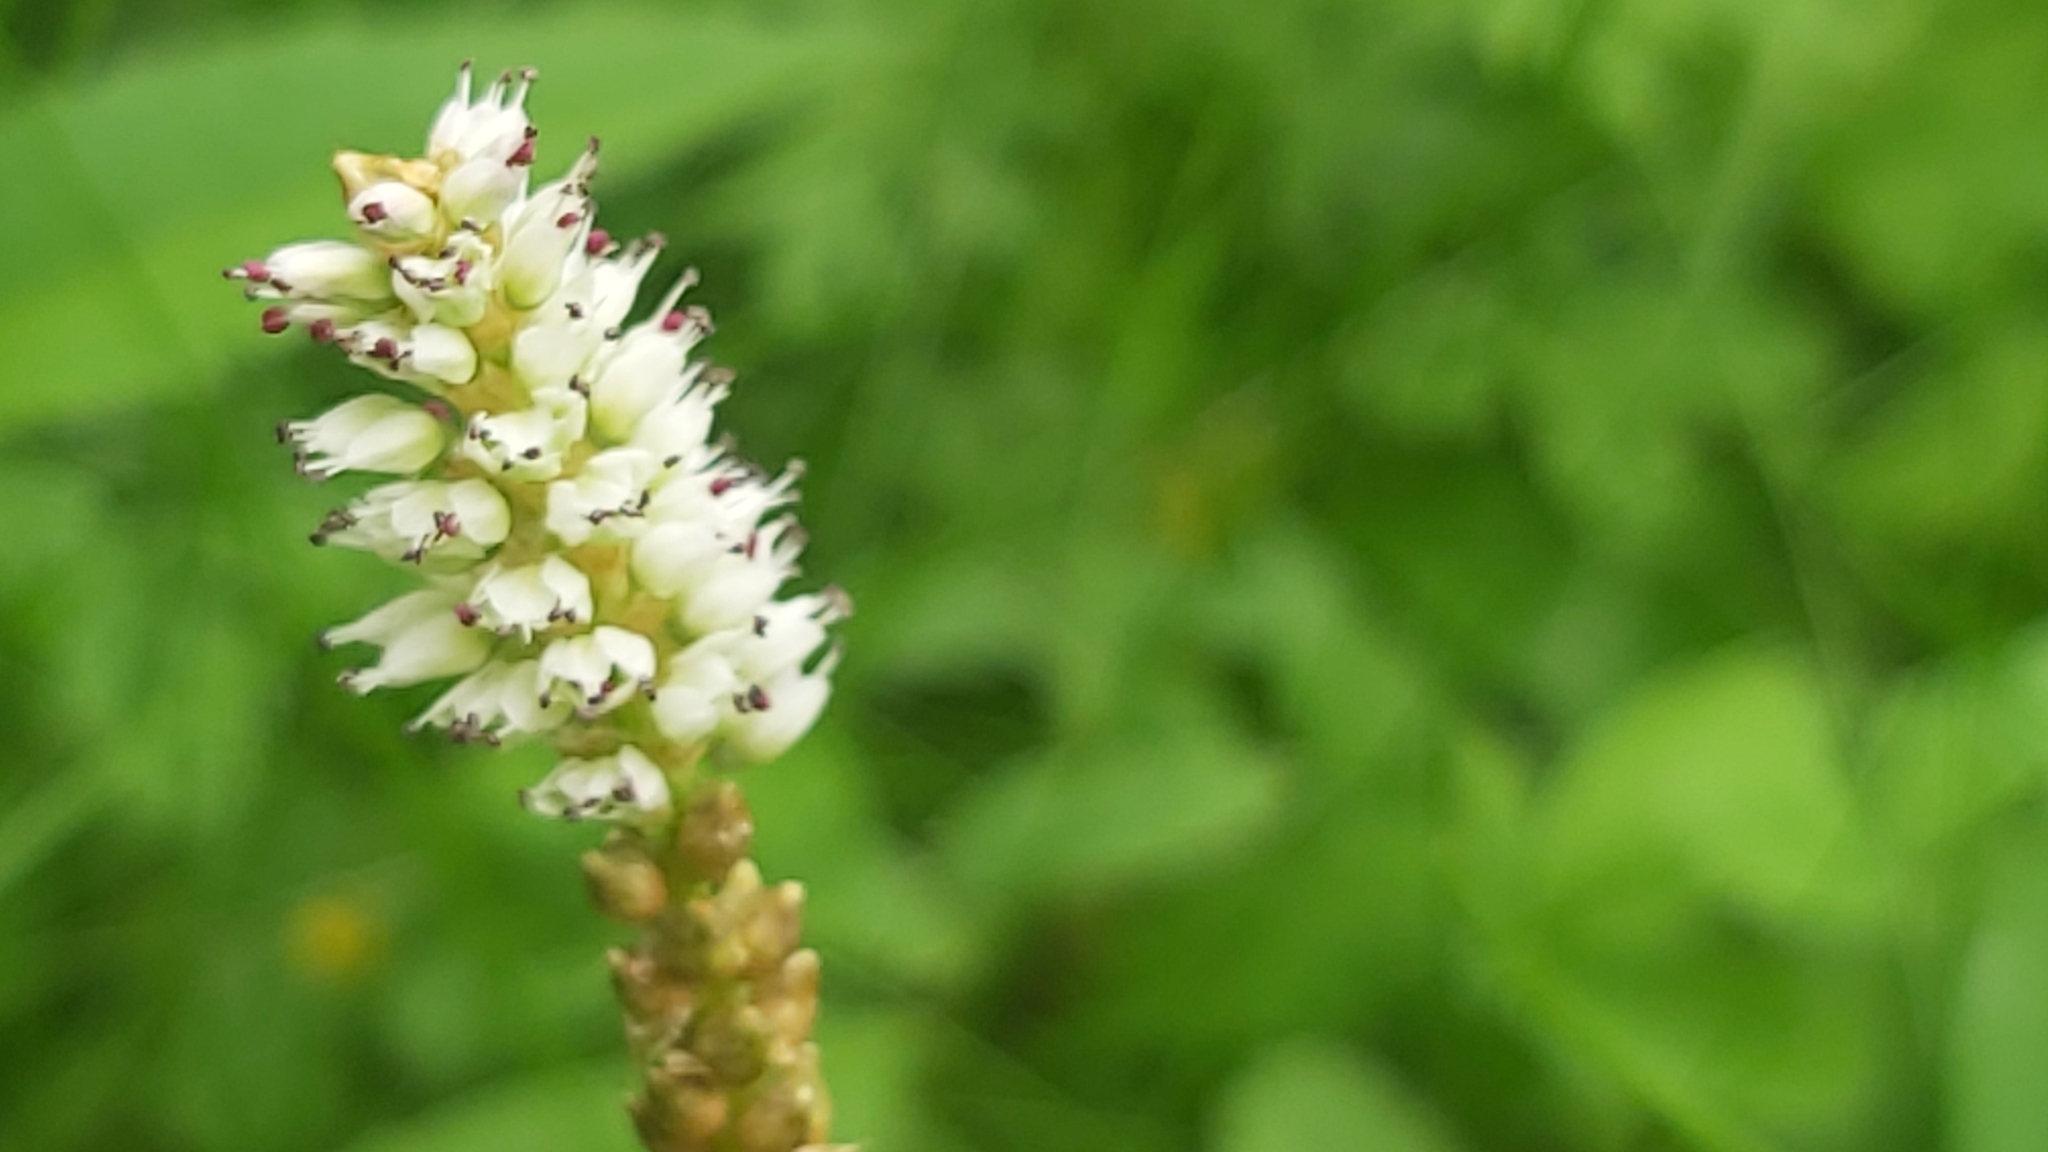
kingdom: Plantae
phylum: Tracheophyta
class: Magnoliopsida
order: Caryophyllales
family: Polygonaceae
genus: Bistorta
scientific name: Bistorta vivipara
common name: Alpine bistort
